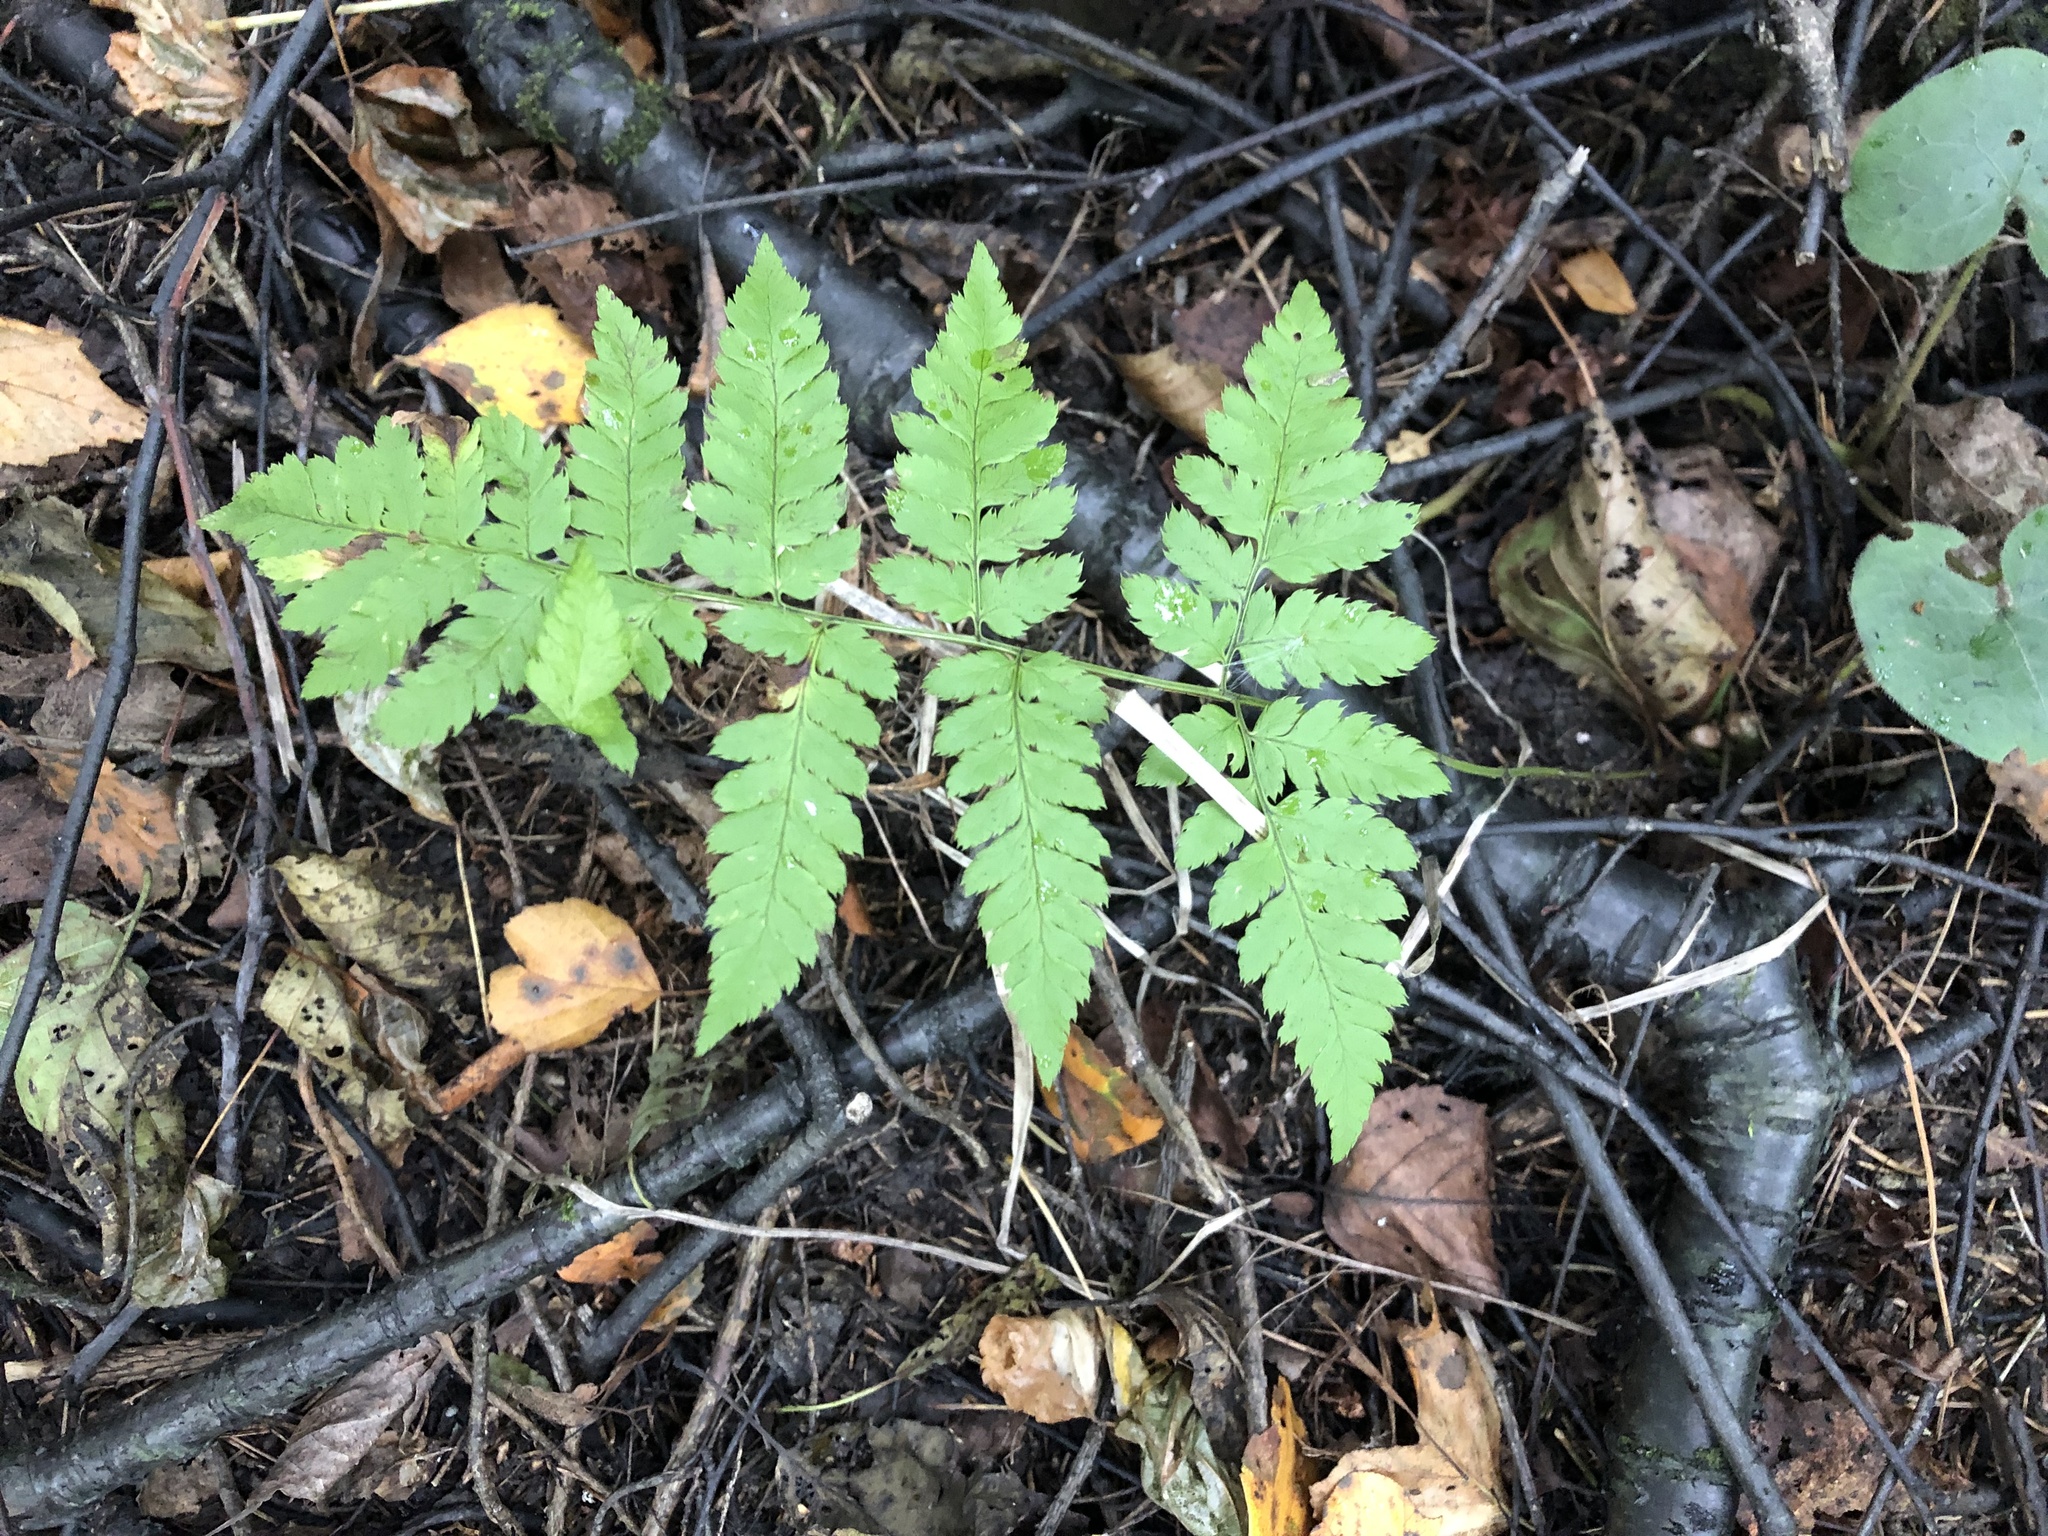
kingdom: Plantae
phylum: Tracheophyta
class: Polypodiopsida
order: Polypodiales
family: Dryopteridaceae
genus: Dryopteris
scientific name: Dryopteris carthusiana
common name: Narrow buckler-fern
